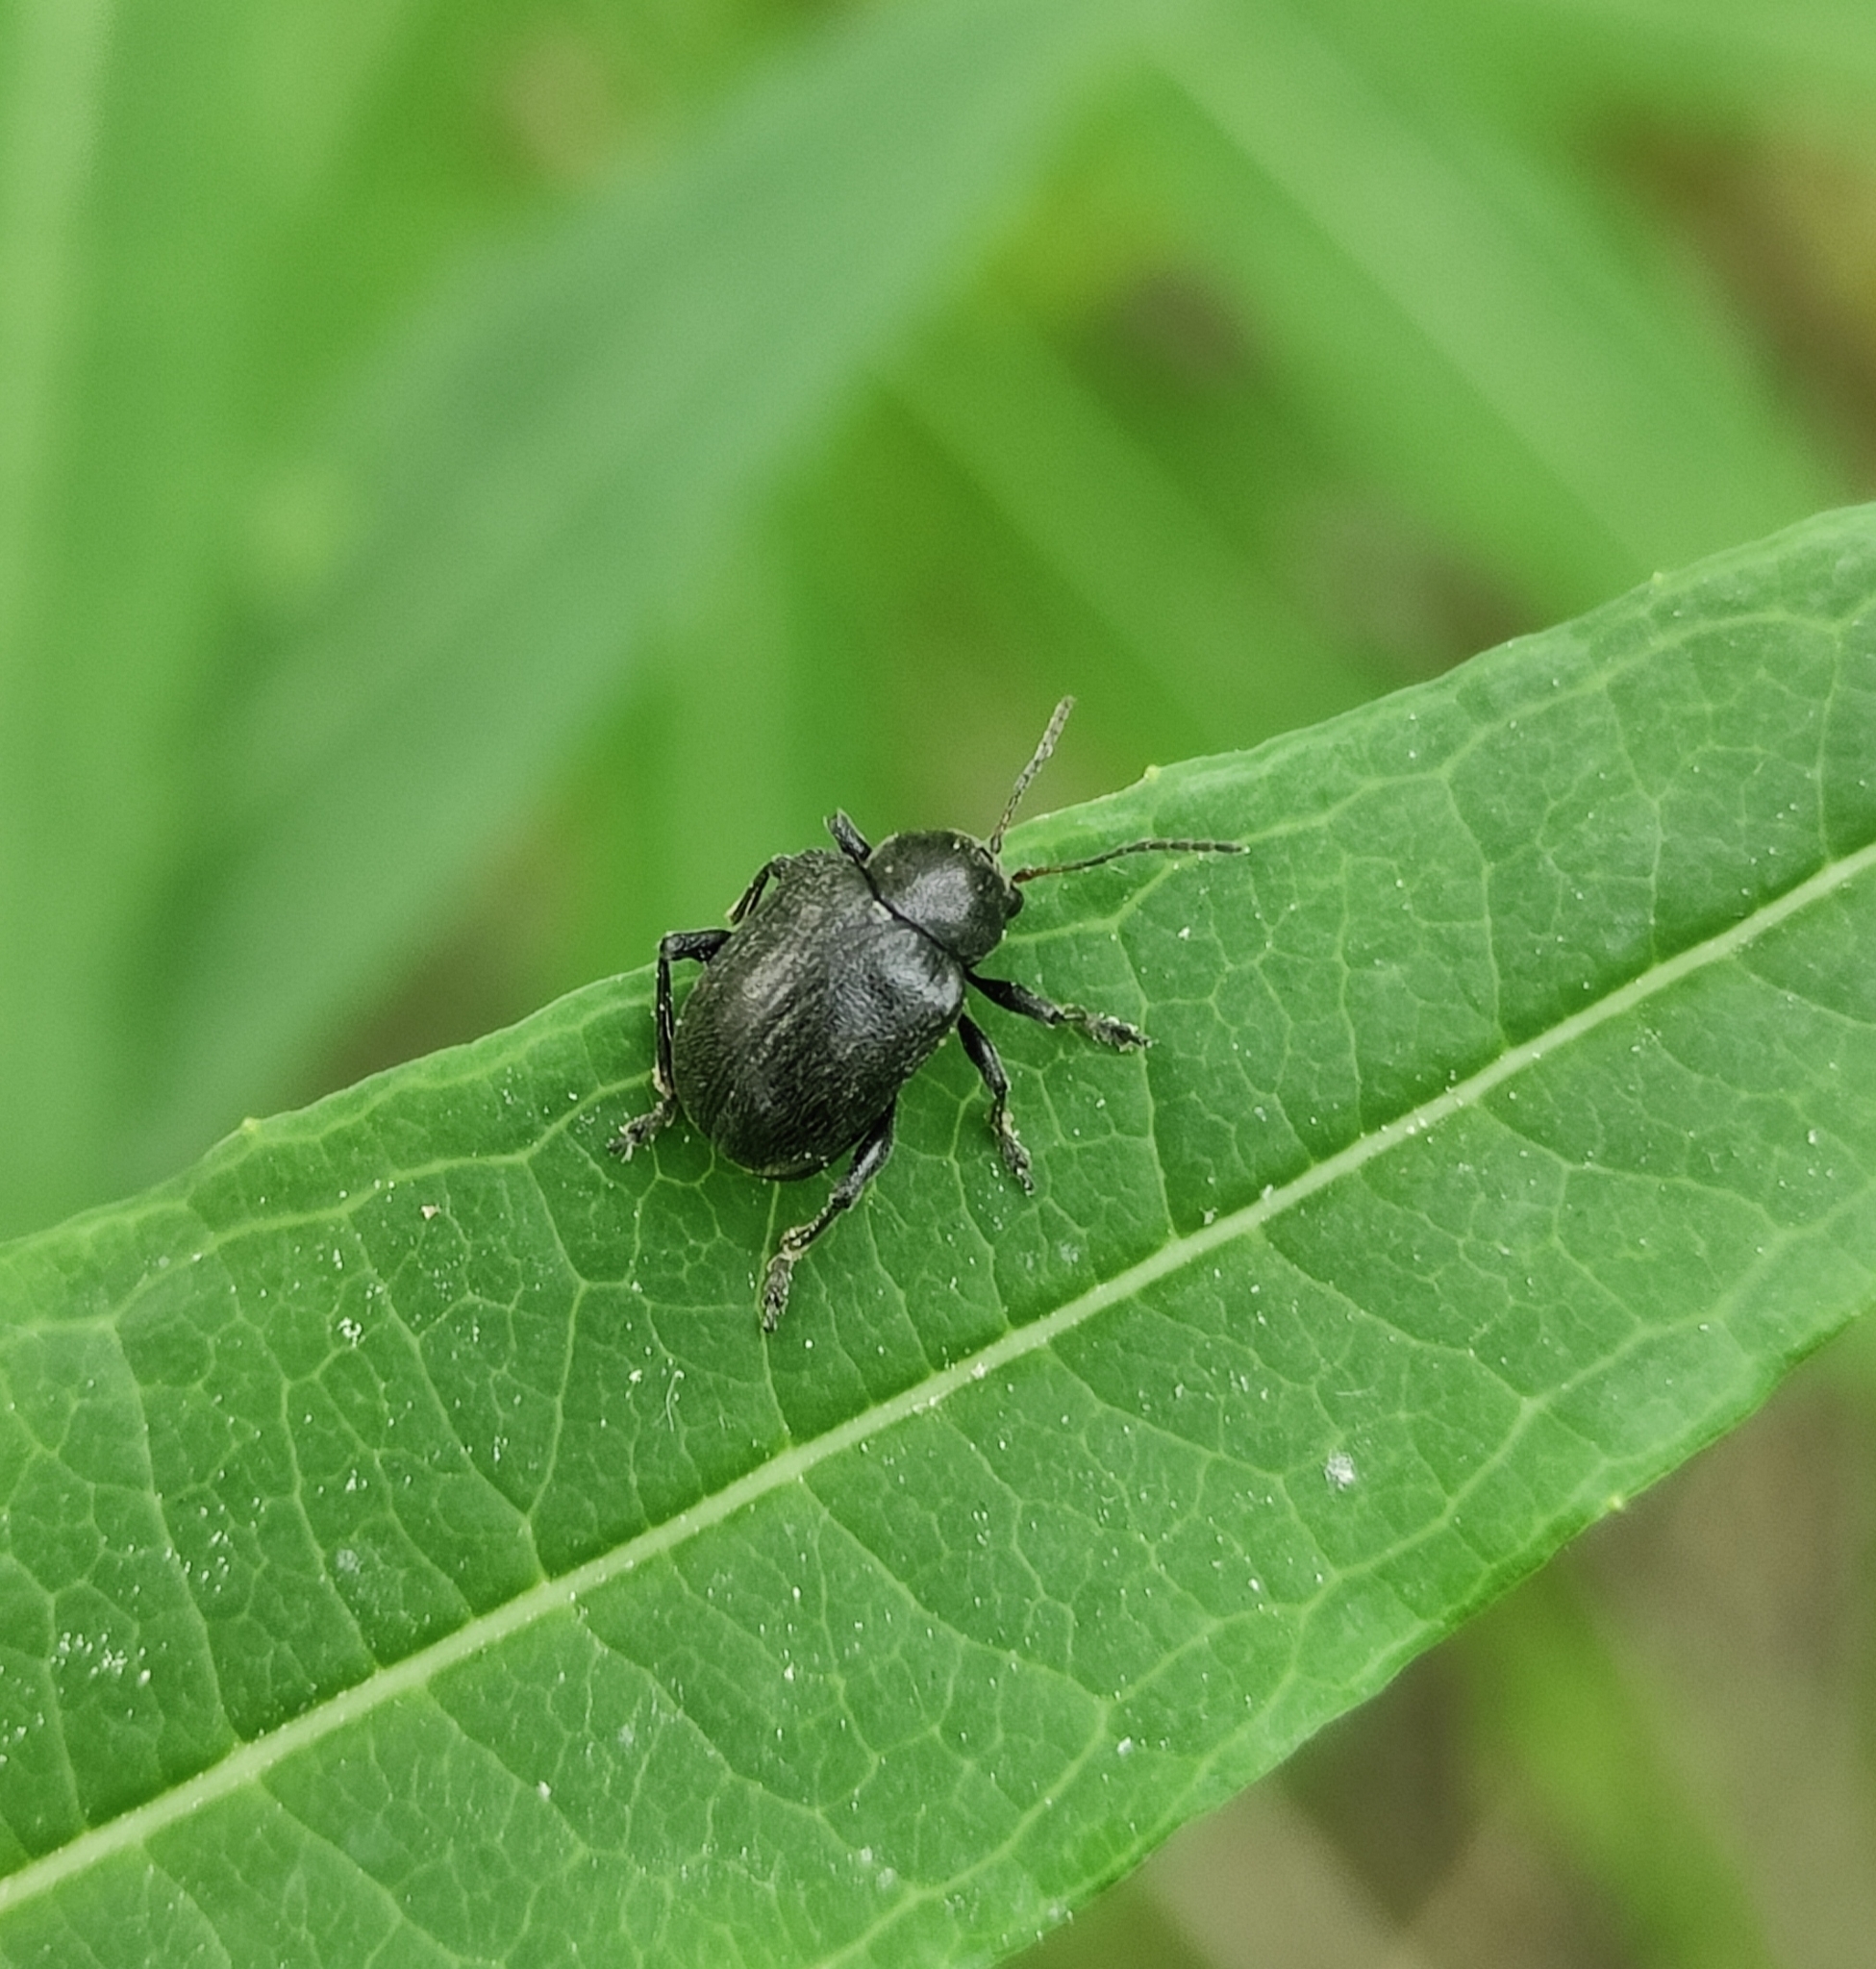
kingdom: Animalia
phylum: Arthropoda
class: Insecta
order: Coleoptera
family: Chrysomelidae
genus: Bromius
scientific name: Bromius obscurus
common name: Western grape rootworm
